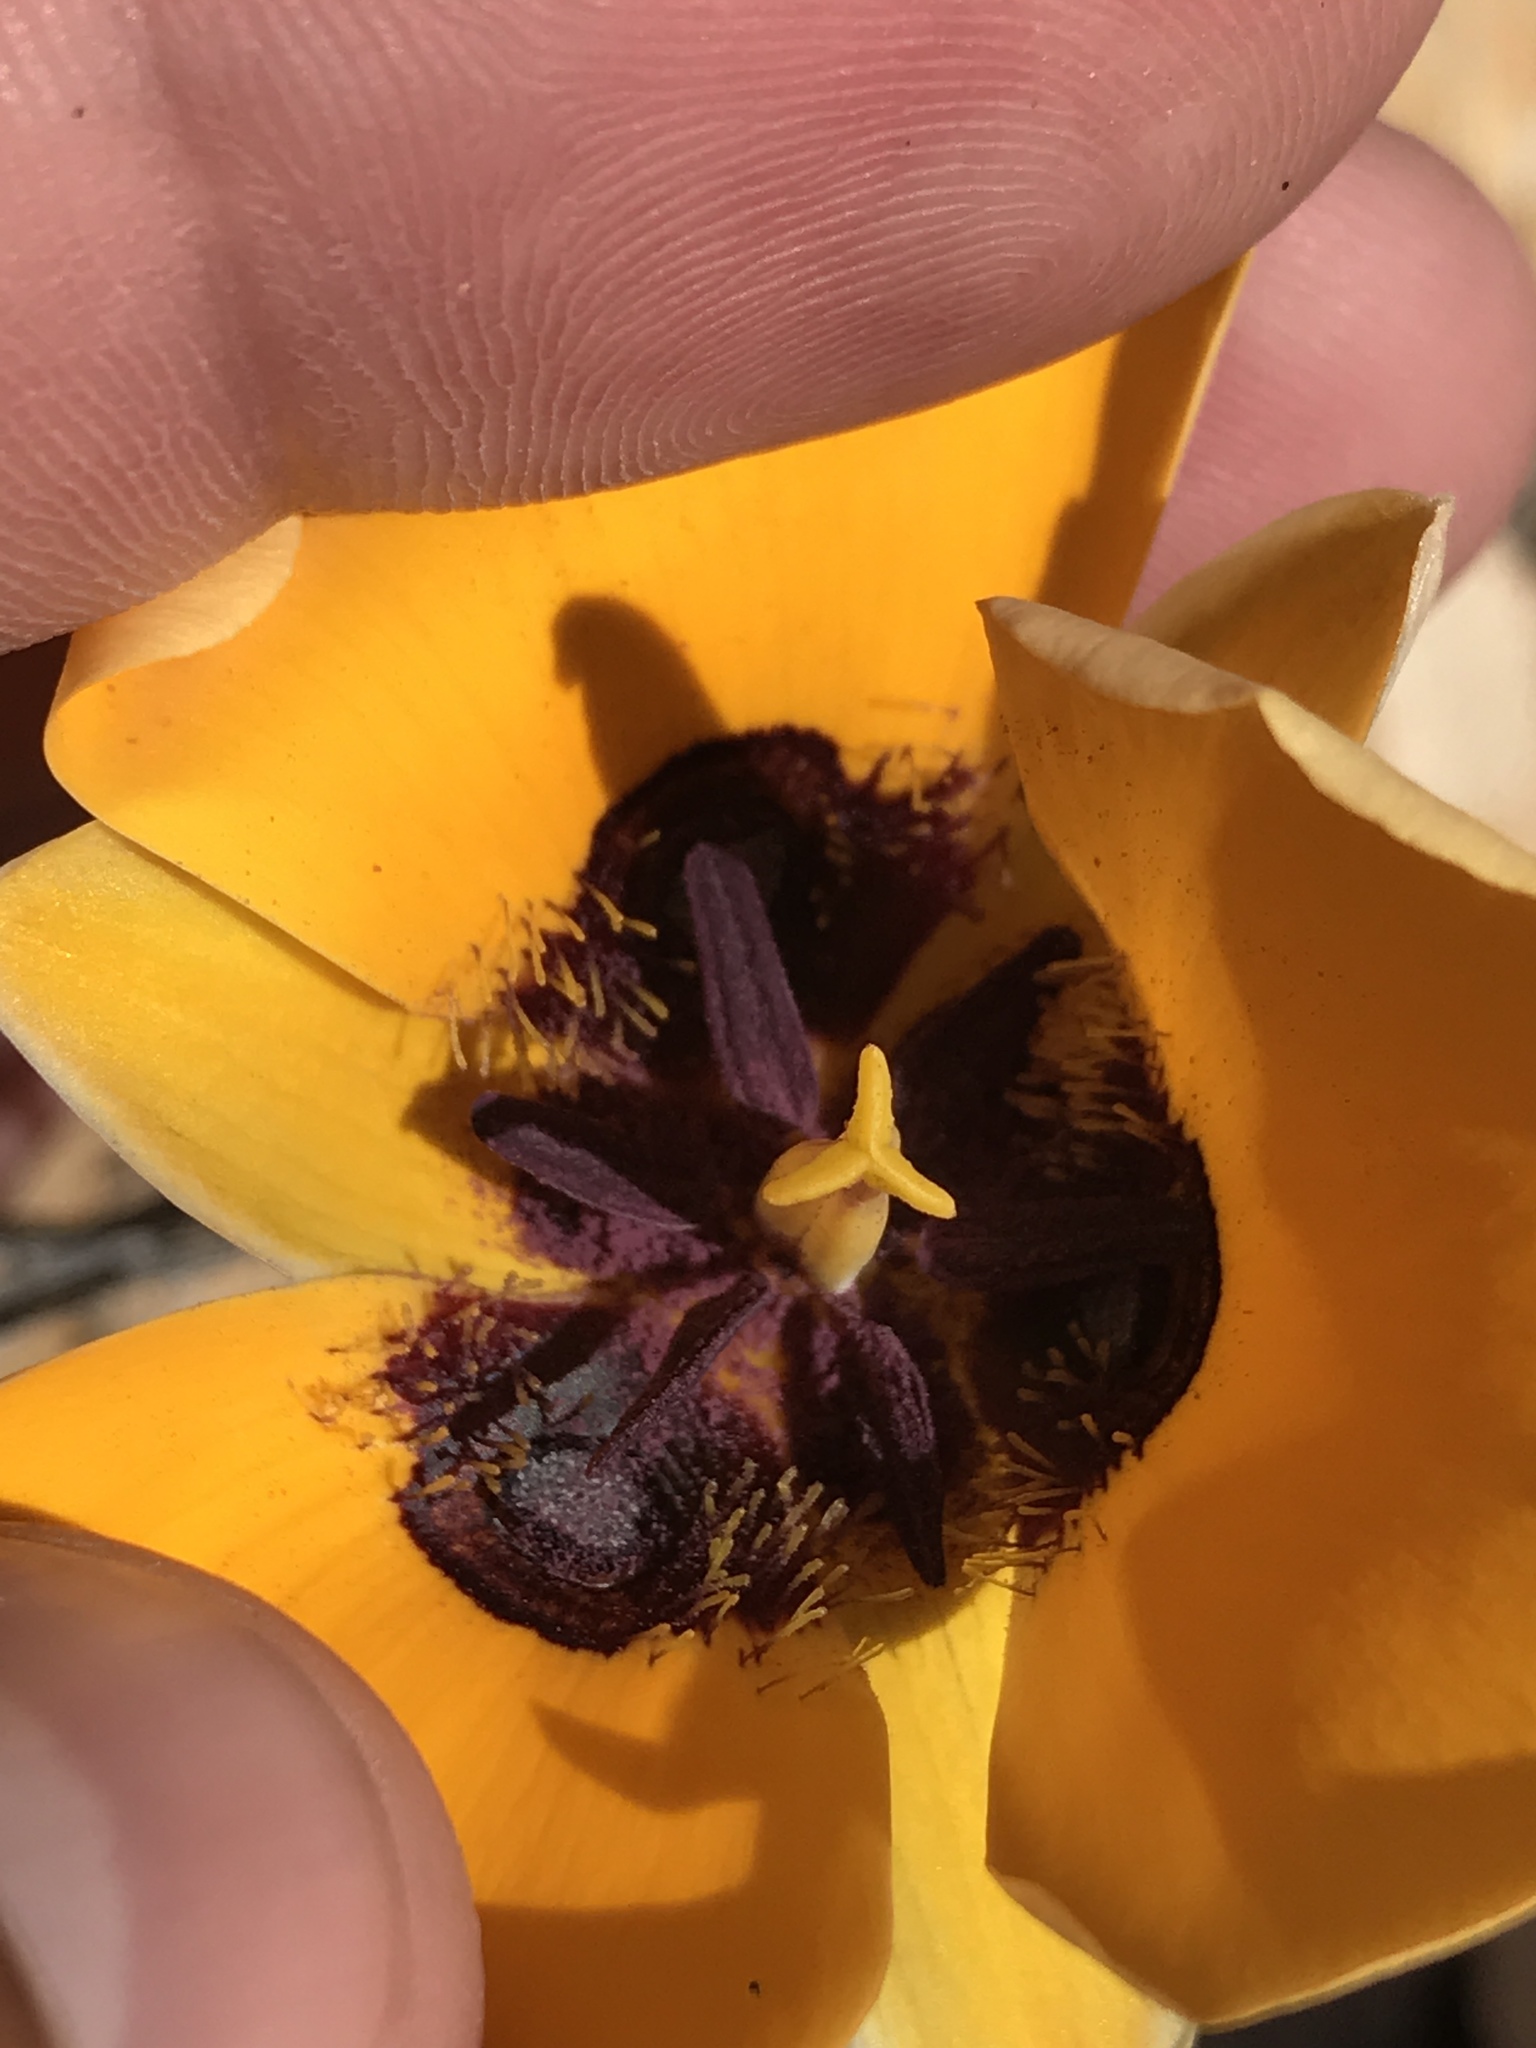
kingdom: Plantae
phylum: Tracheophyta
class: Liliopsida
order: Liliales
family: Liliaceae
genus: Calochortus
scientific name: Calochortus kennedyi
